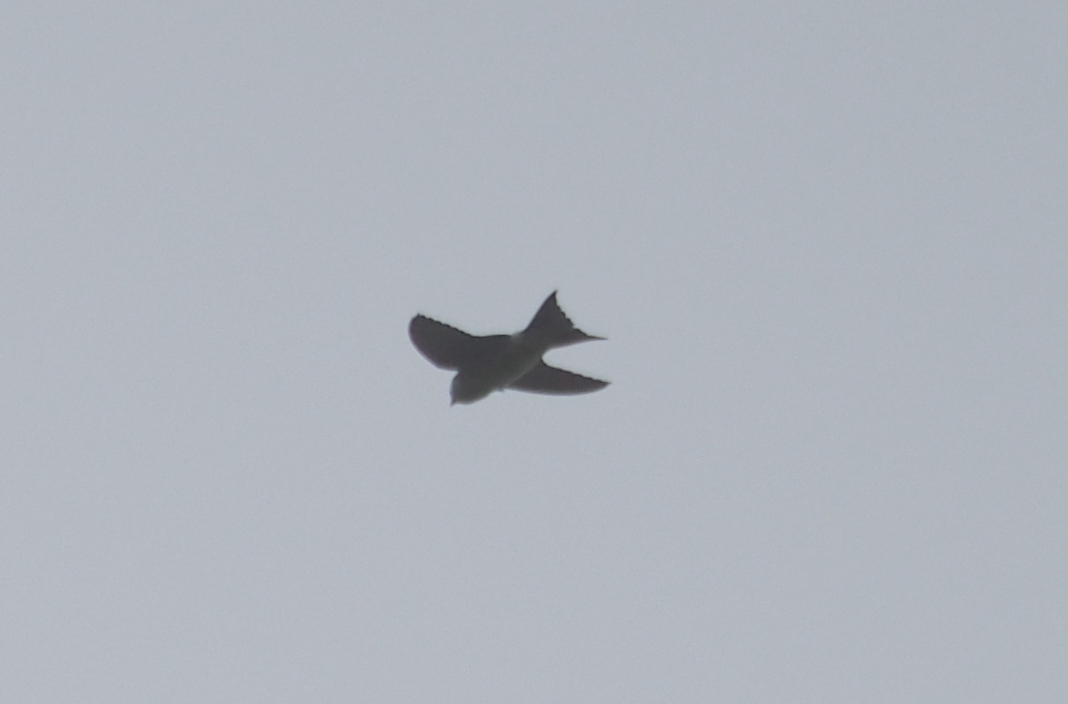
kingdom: Animalia
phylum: Chordata
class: Aves
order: Passeriformes
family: Hirundinidae
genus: Delichon
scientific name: Delichon urbicum
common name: Common house martin
